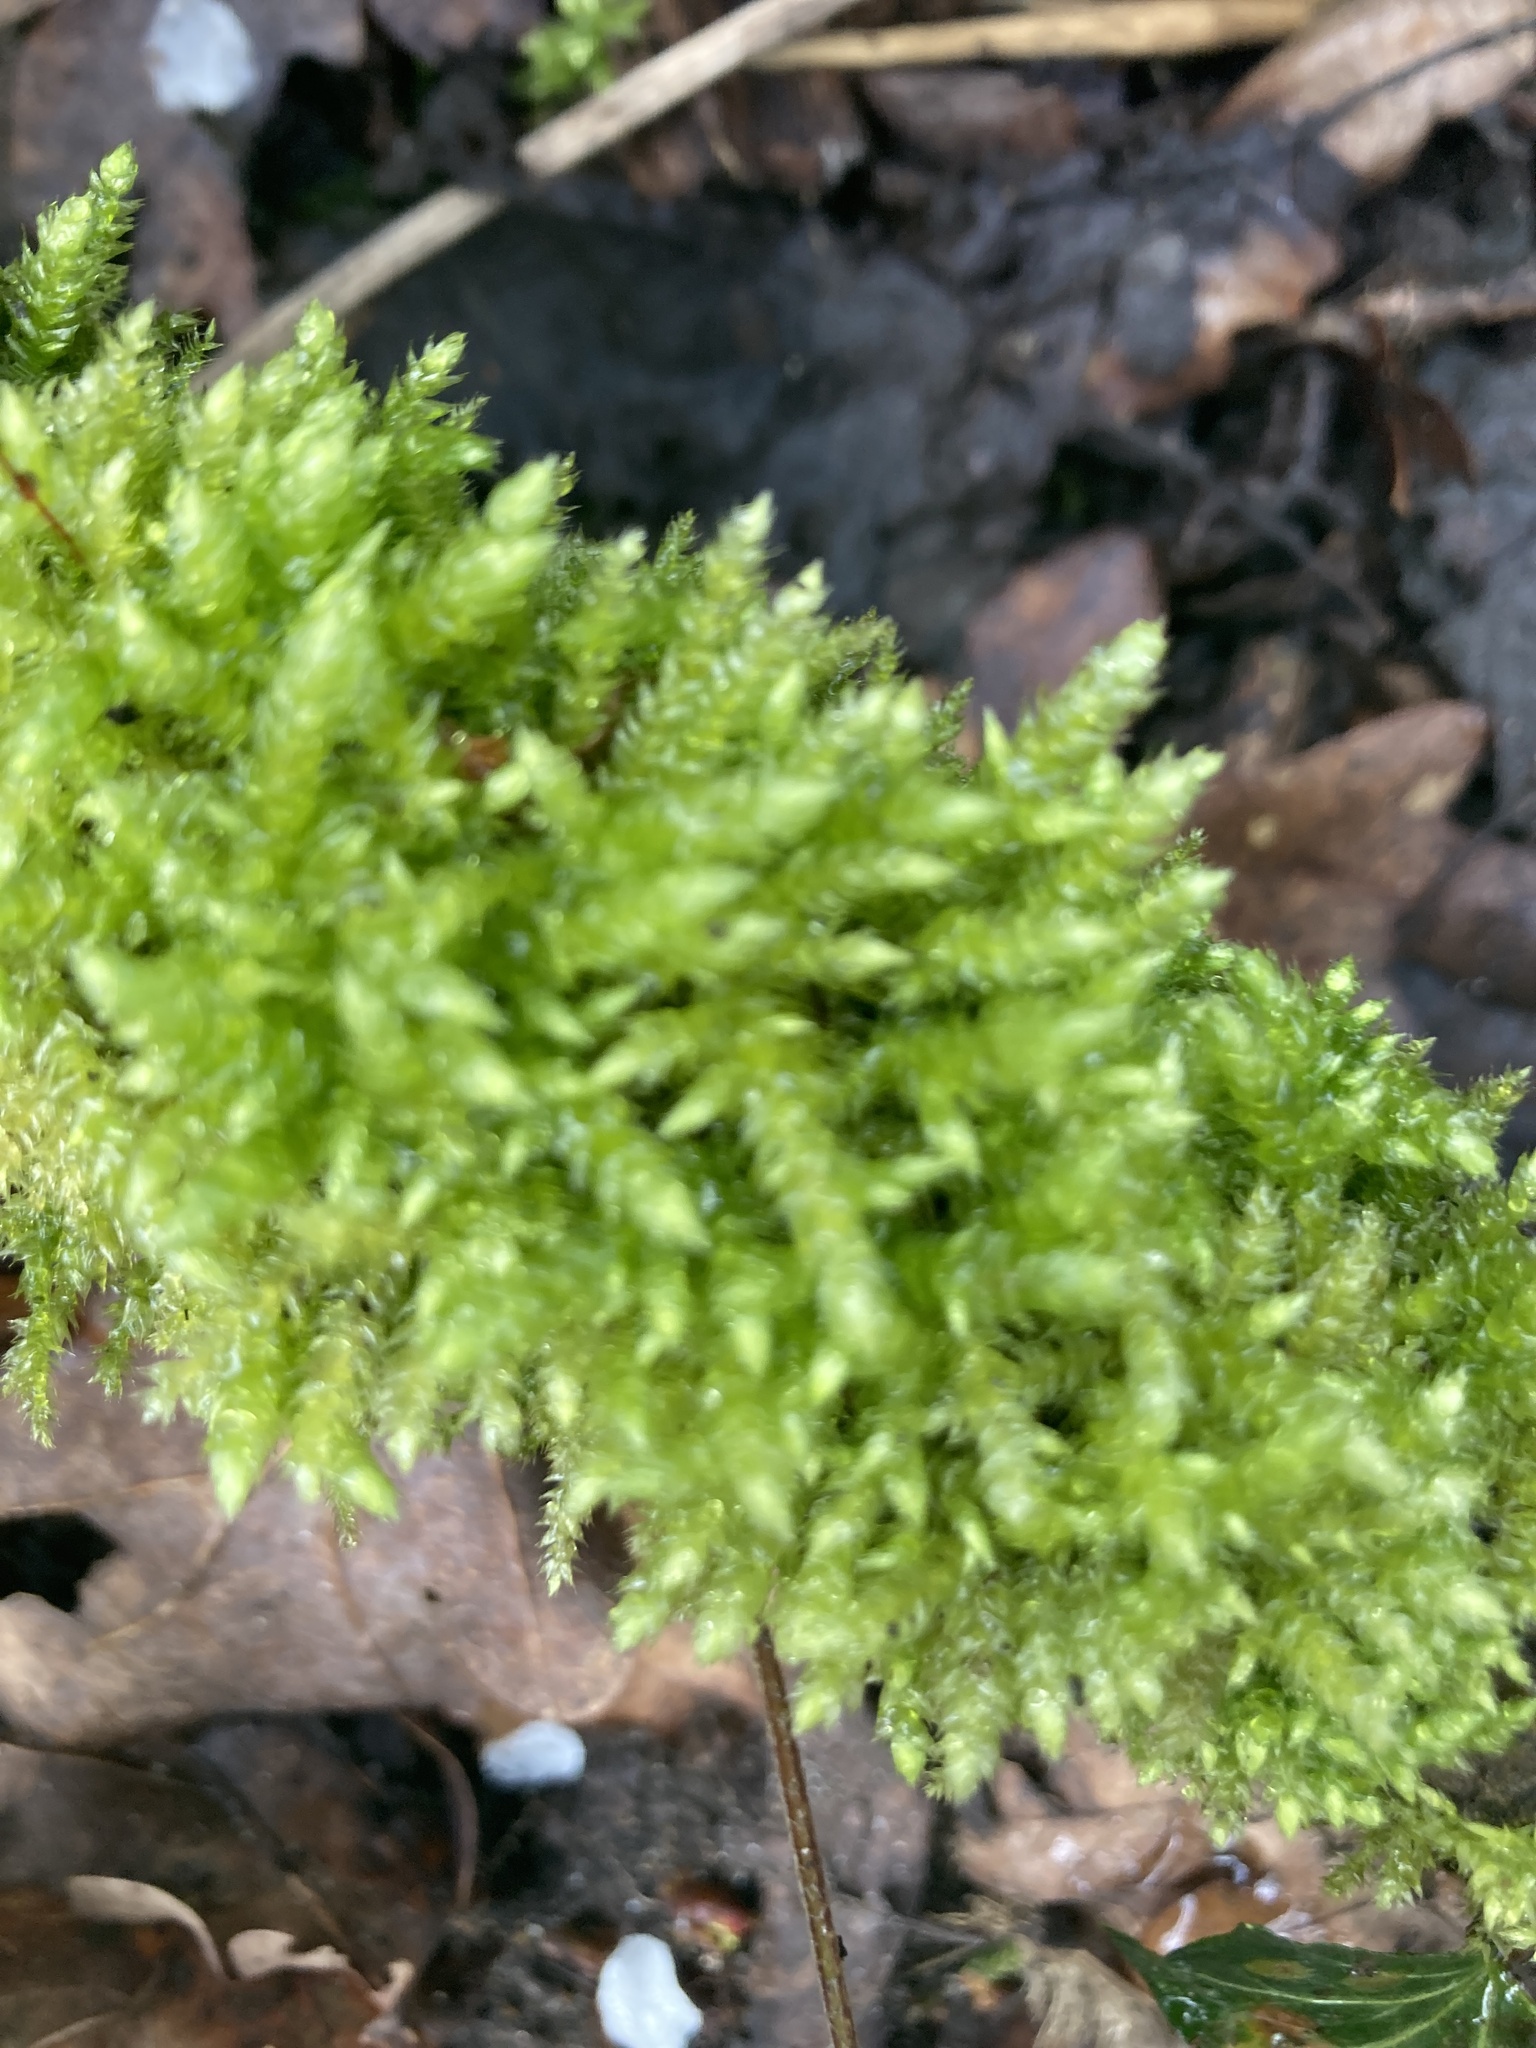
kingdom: Plantae
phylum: Bryophyta
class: Bryopsida
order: Hypnales
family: Brachytheciaceae
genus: Brachythecium
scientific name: Brachythecium rutabulum
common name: Rough-stalked feather-moss
